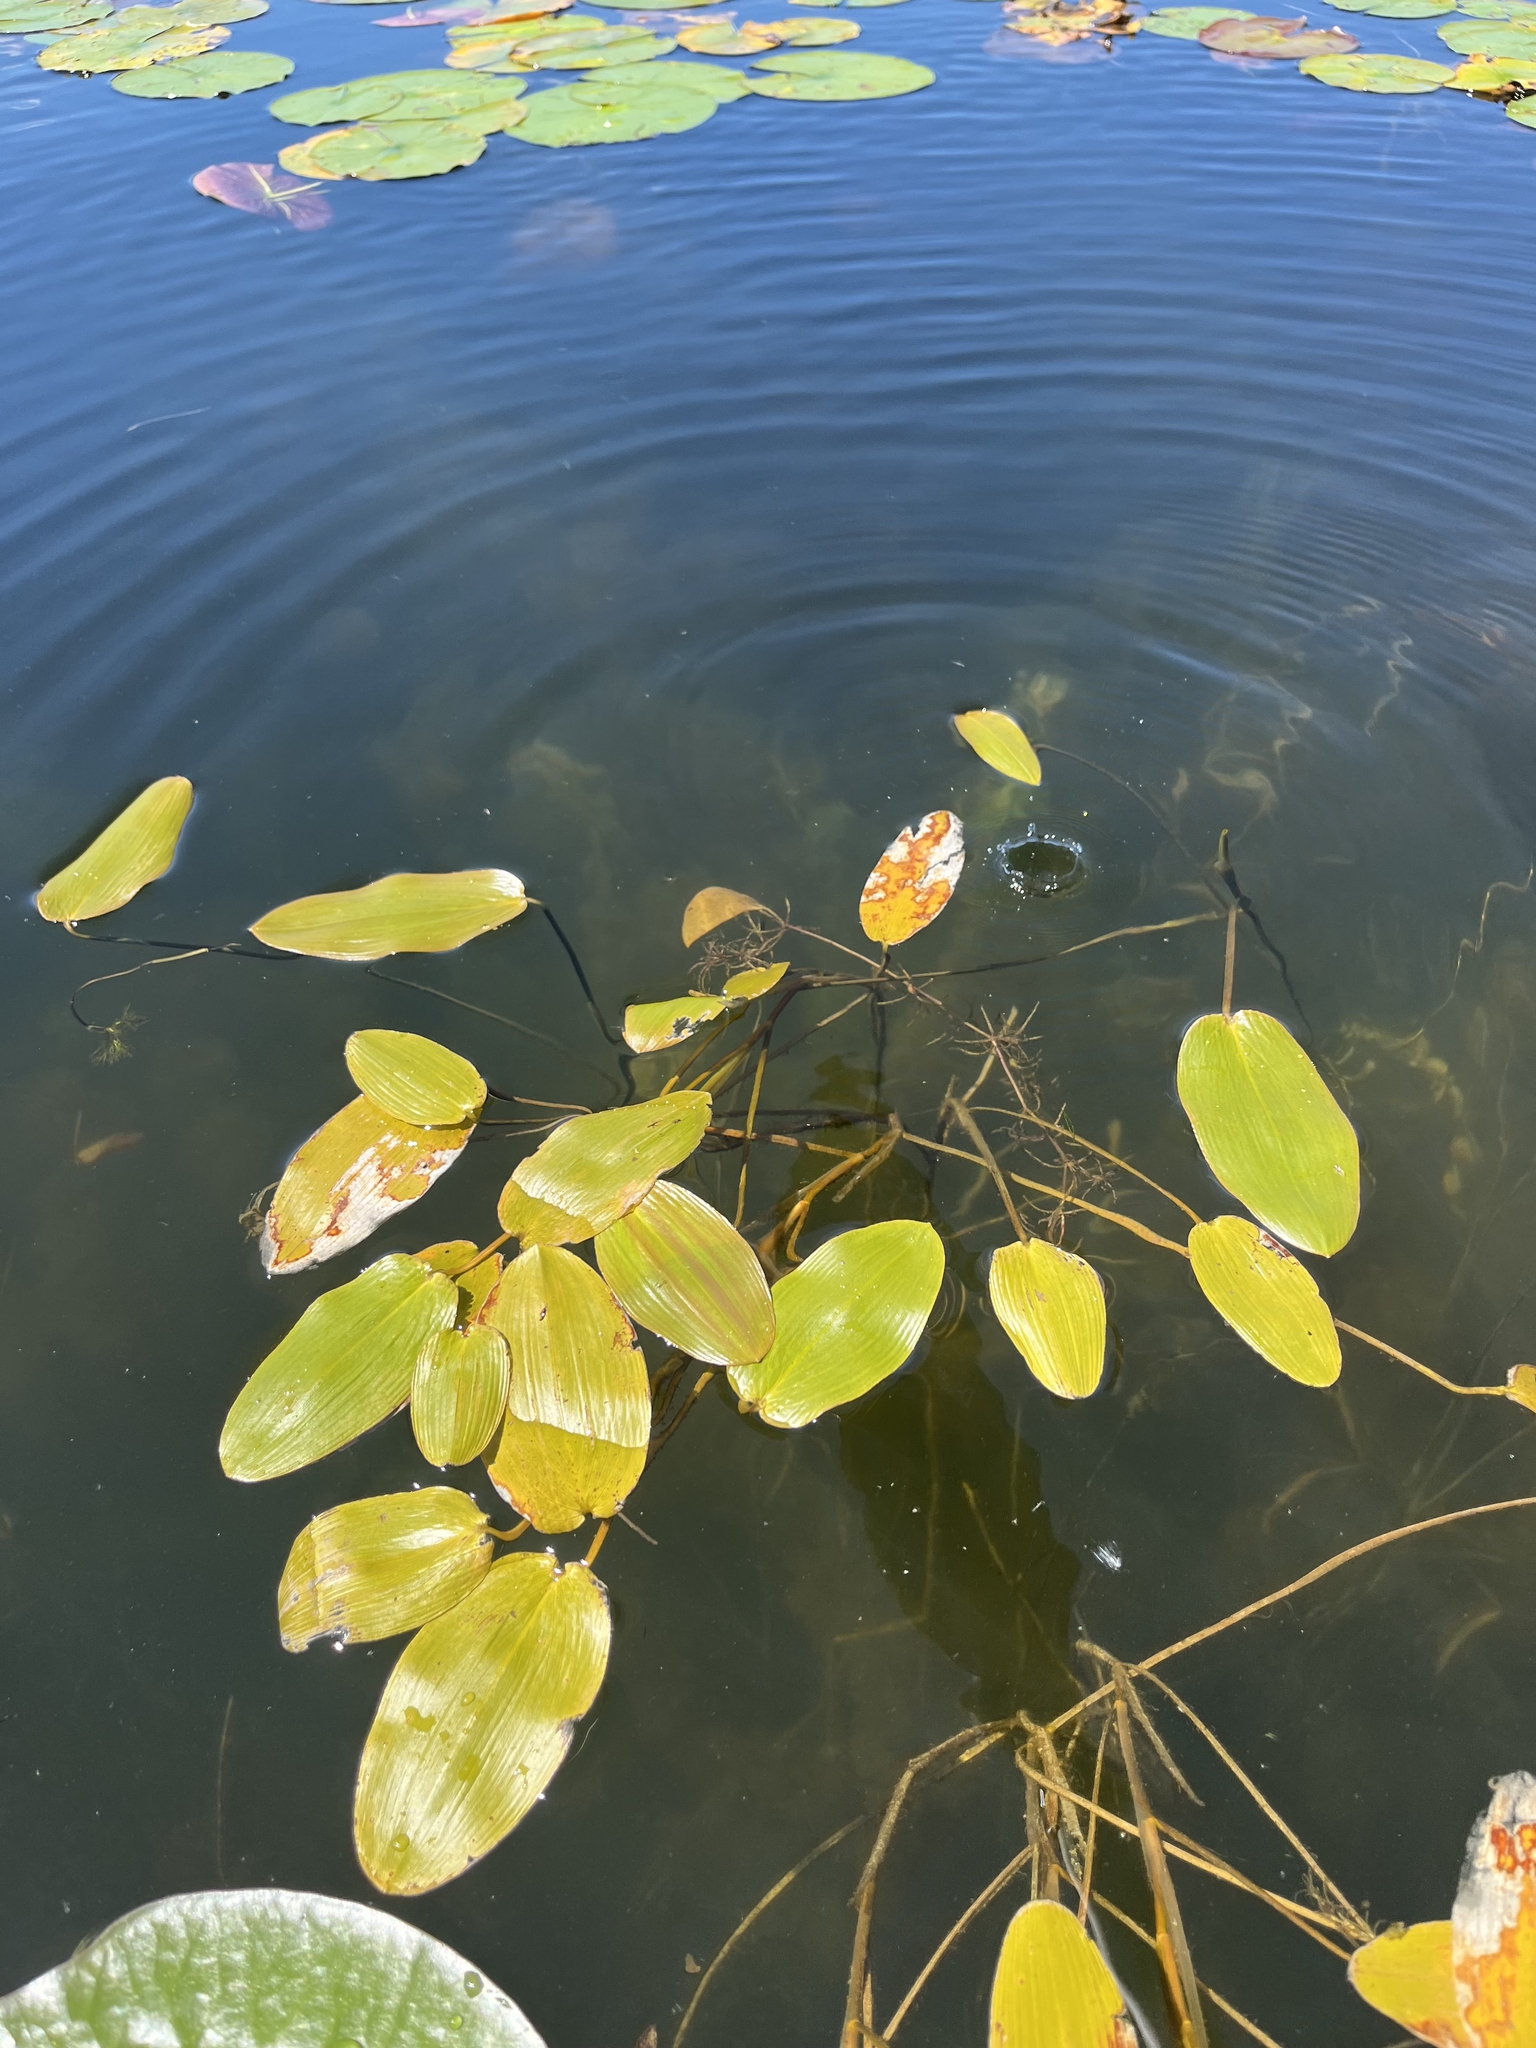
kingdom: Plantae
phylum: Tracheophyta
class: Liliopsida
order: Alismatales
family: Potamogetonaceae
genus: Potamogeton
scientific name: Potamogeton natans
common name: Broad-leaved pondweed
